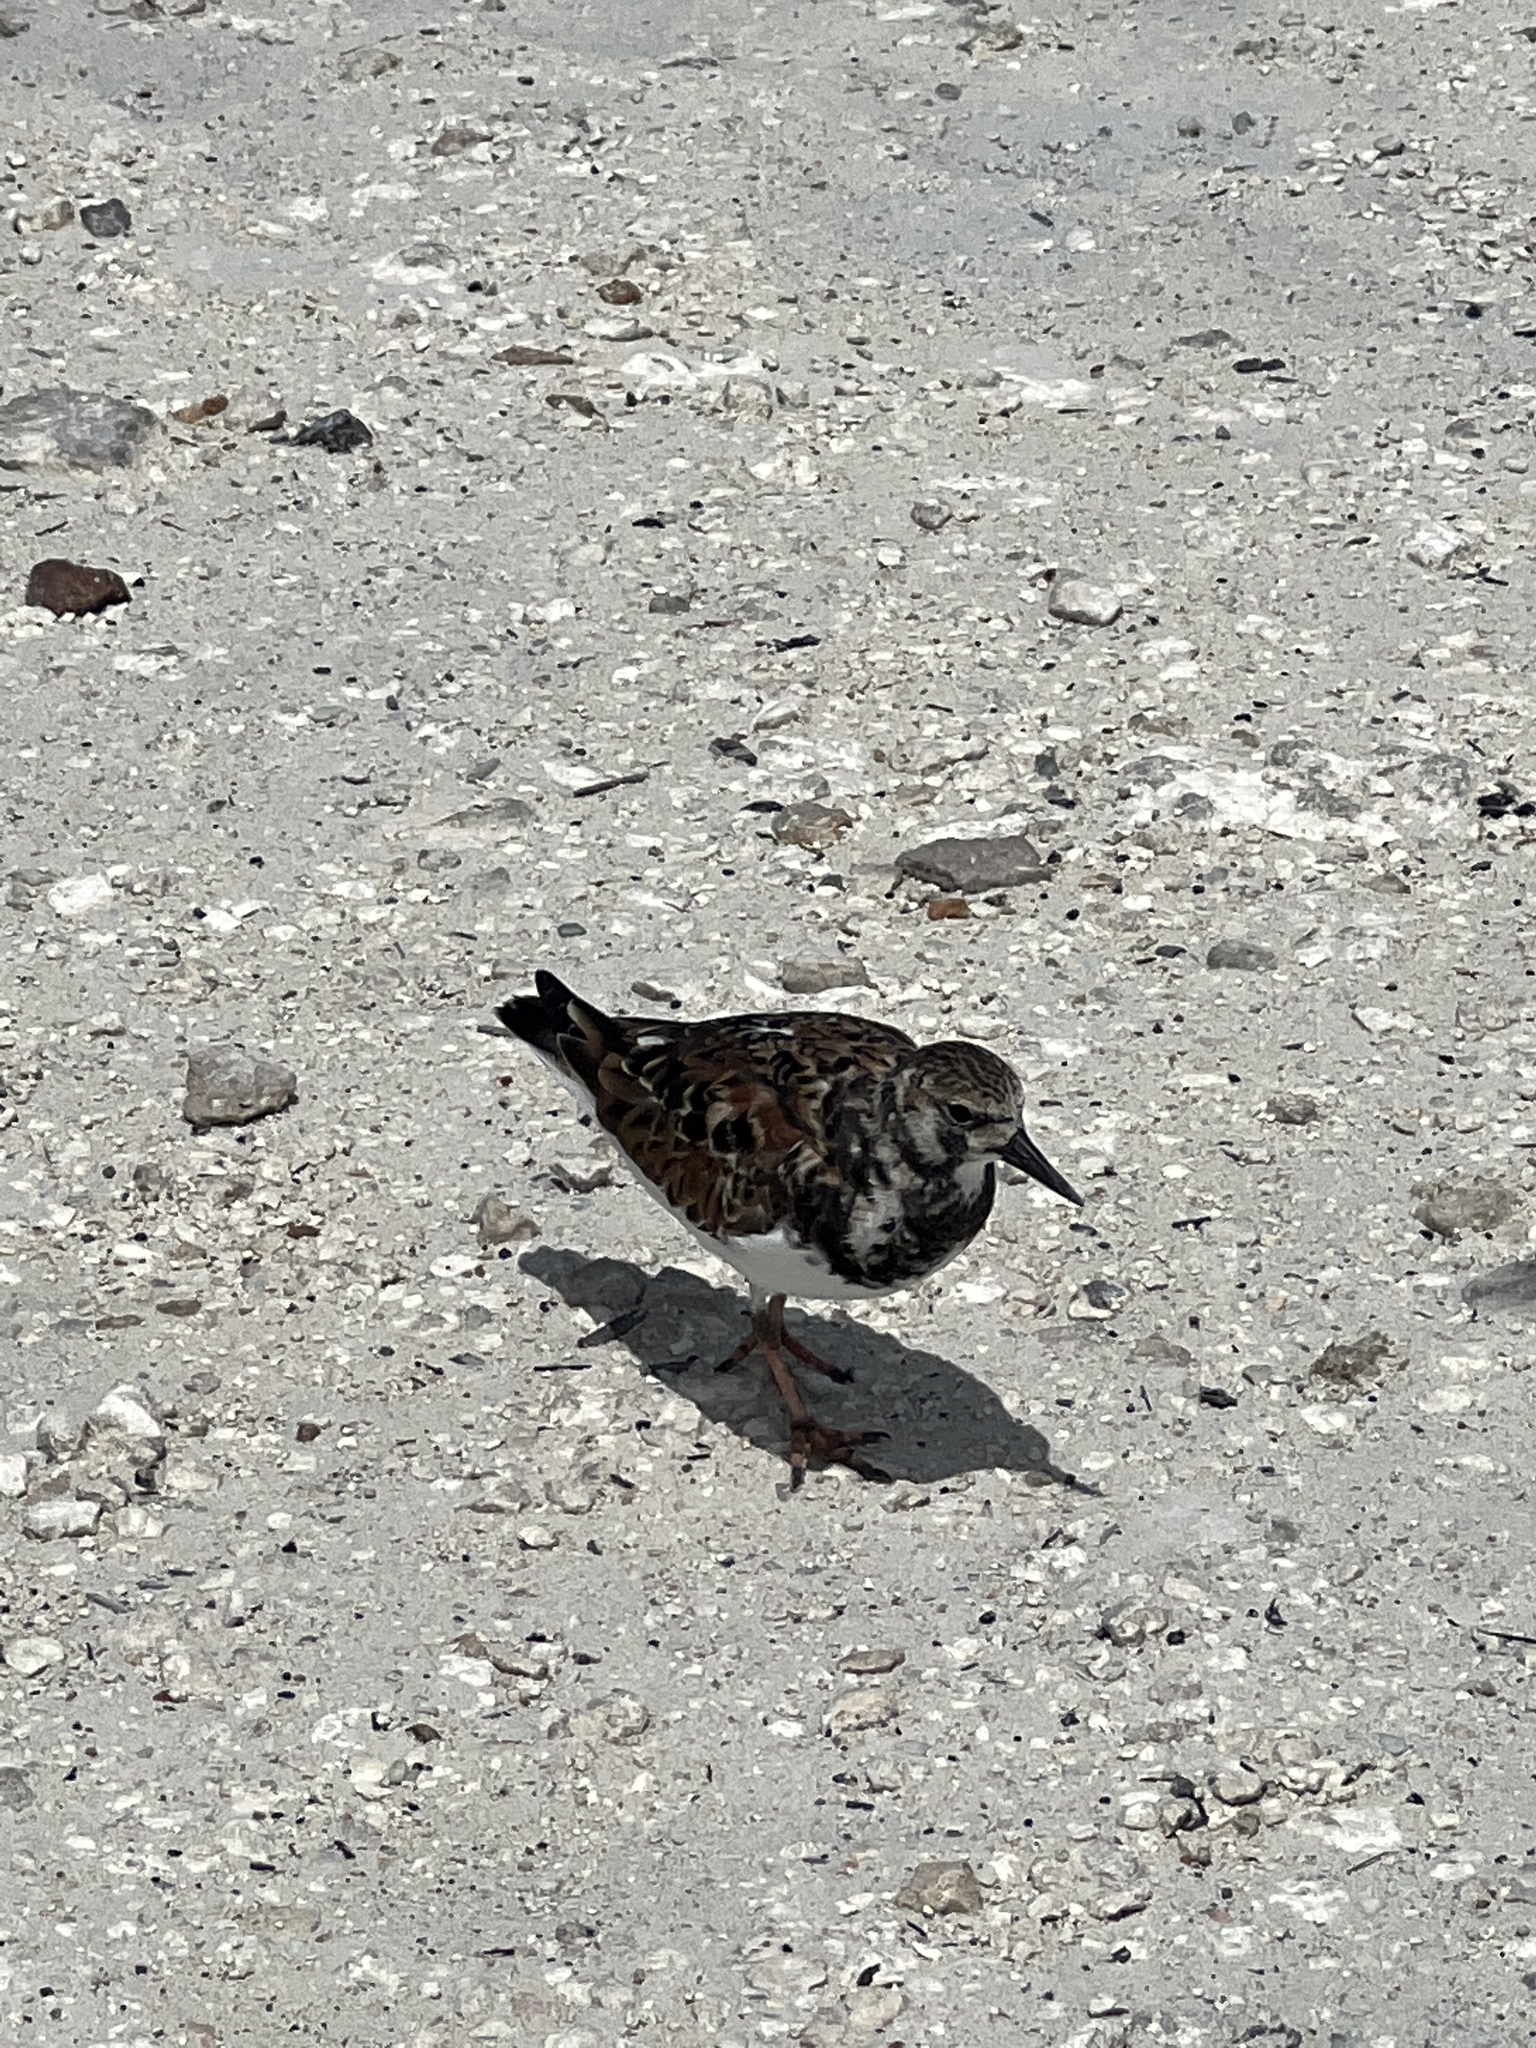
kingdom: Animalia
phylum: Chordata
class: Aves
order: Charadriiformes
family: Scolopacidae
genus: Arenaria
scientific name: Arenaria interpres
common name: Ruddy turnstone
